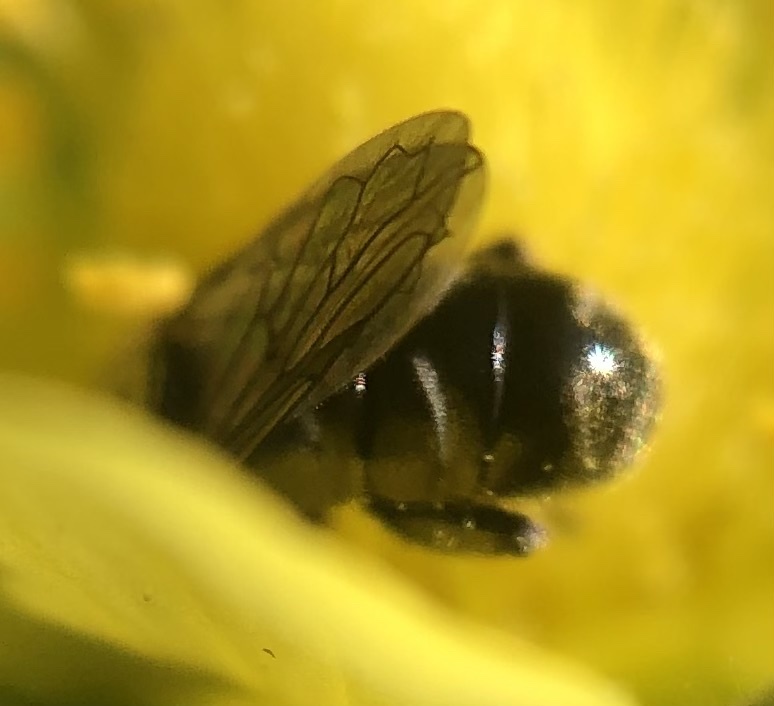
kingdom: Animalia
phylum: Arthropoda
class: Insecta
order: Diptera
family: Syrphidae
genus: Eumerus
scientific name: Eumerus
